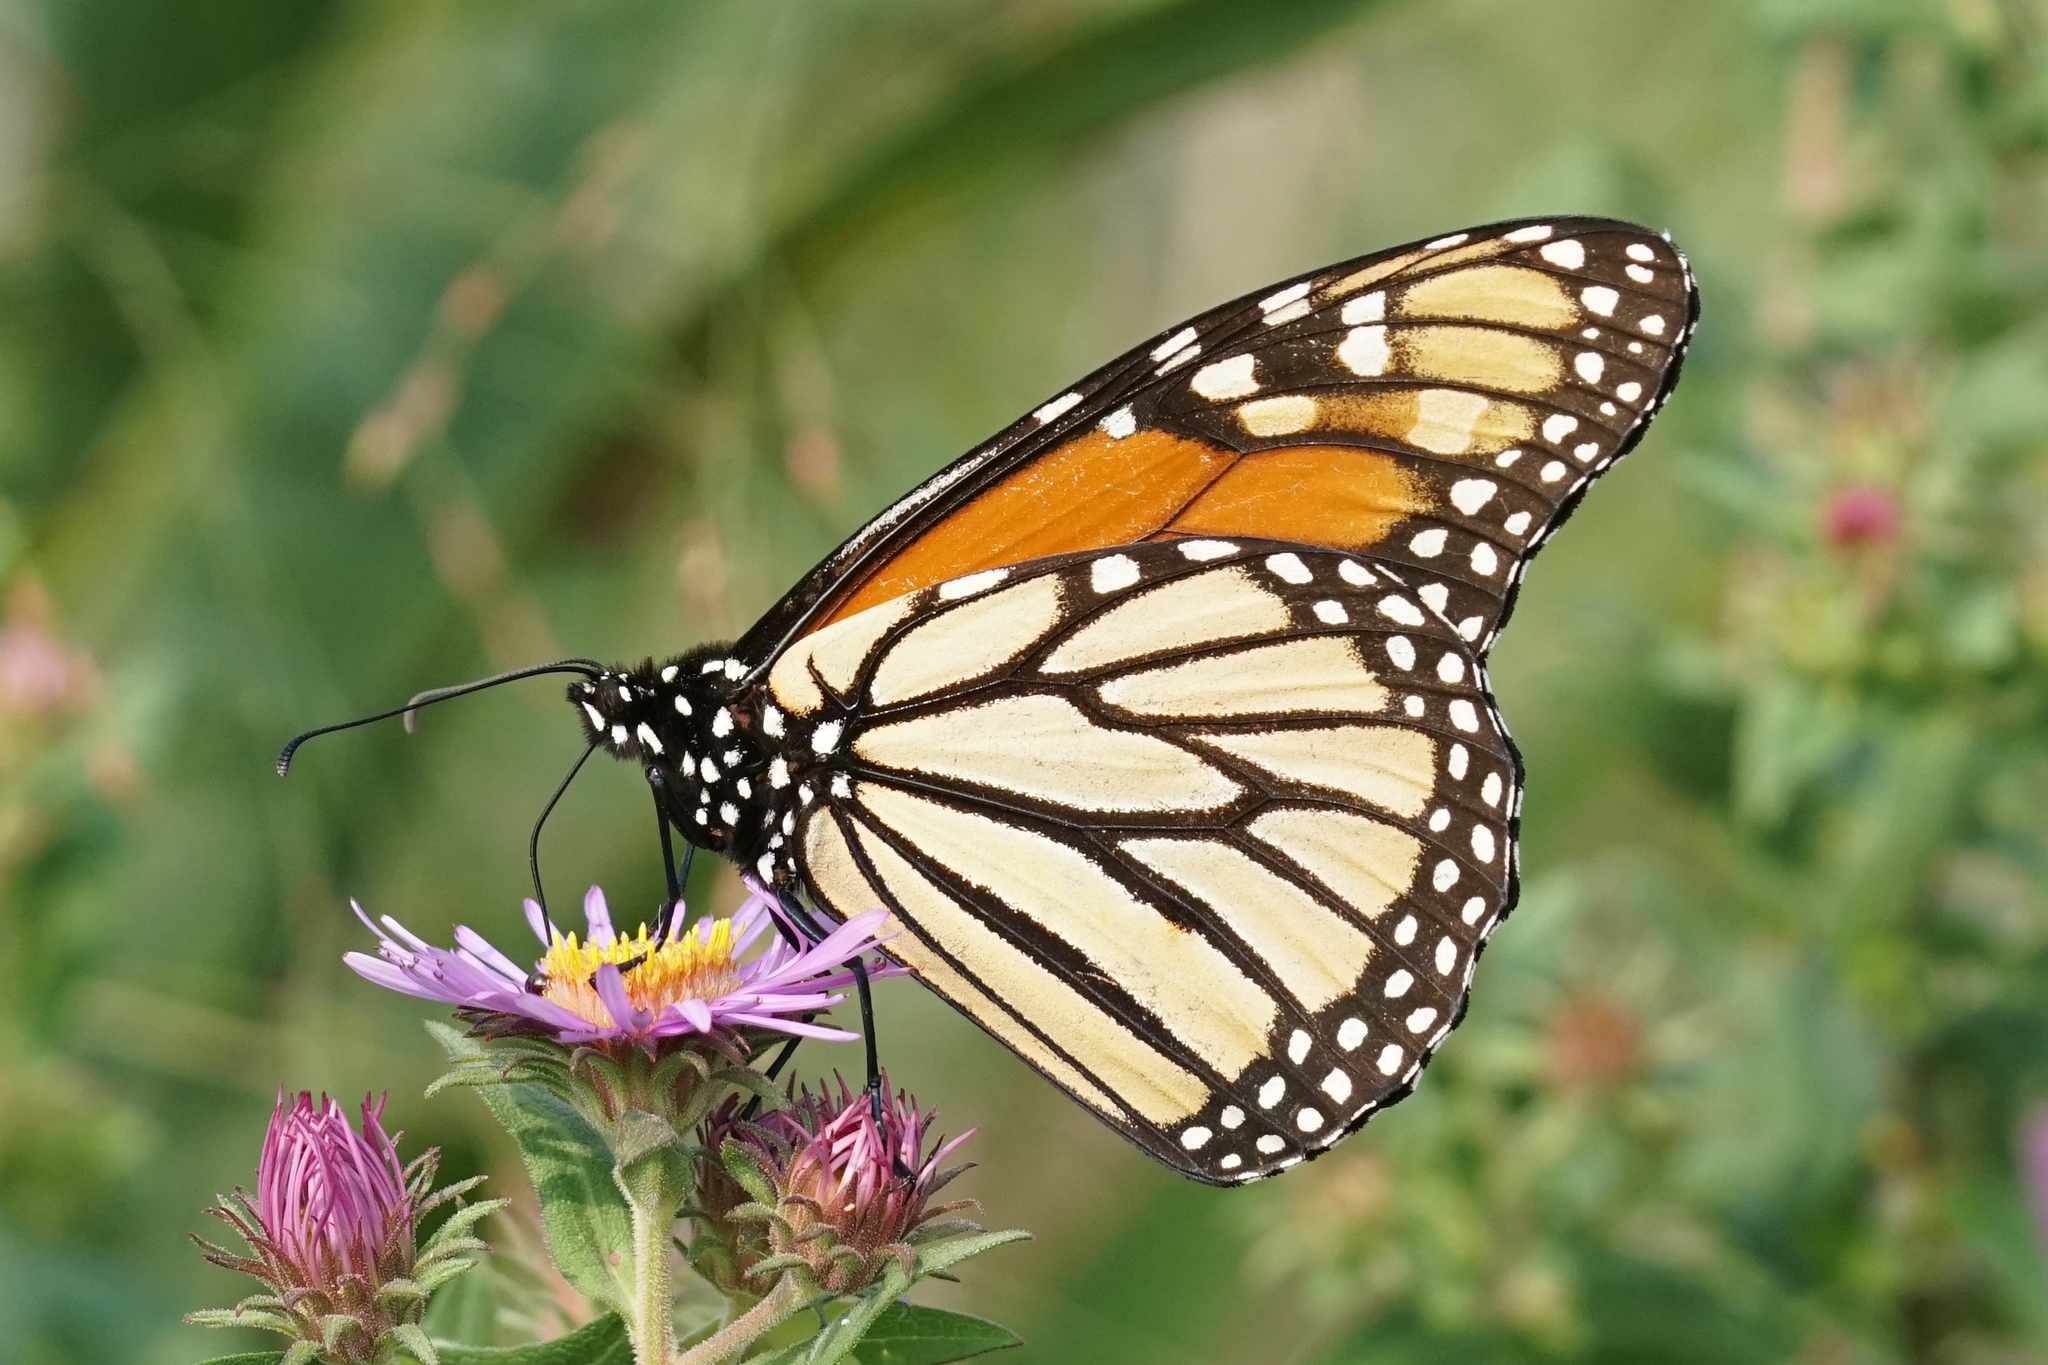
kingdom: Animalia
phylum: Arthropoda
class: Insecta
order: Lepidoptera
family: Nymphalidae
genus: Danaus
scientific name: Danaus plexippus
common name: Monarch
